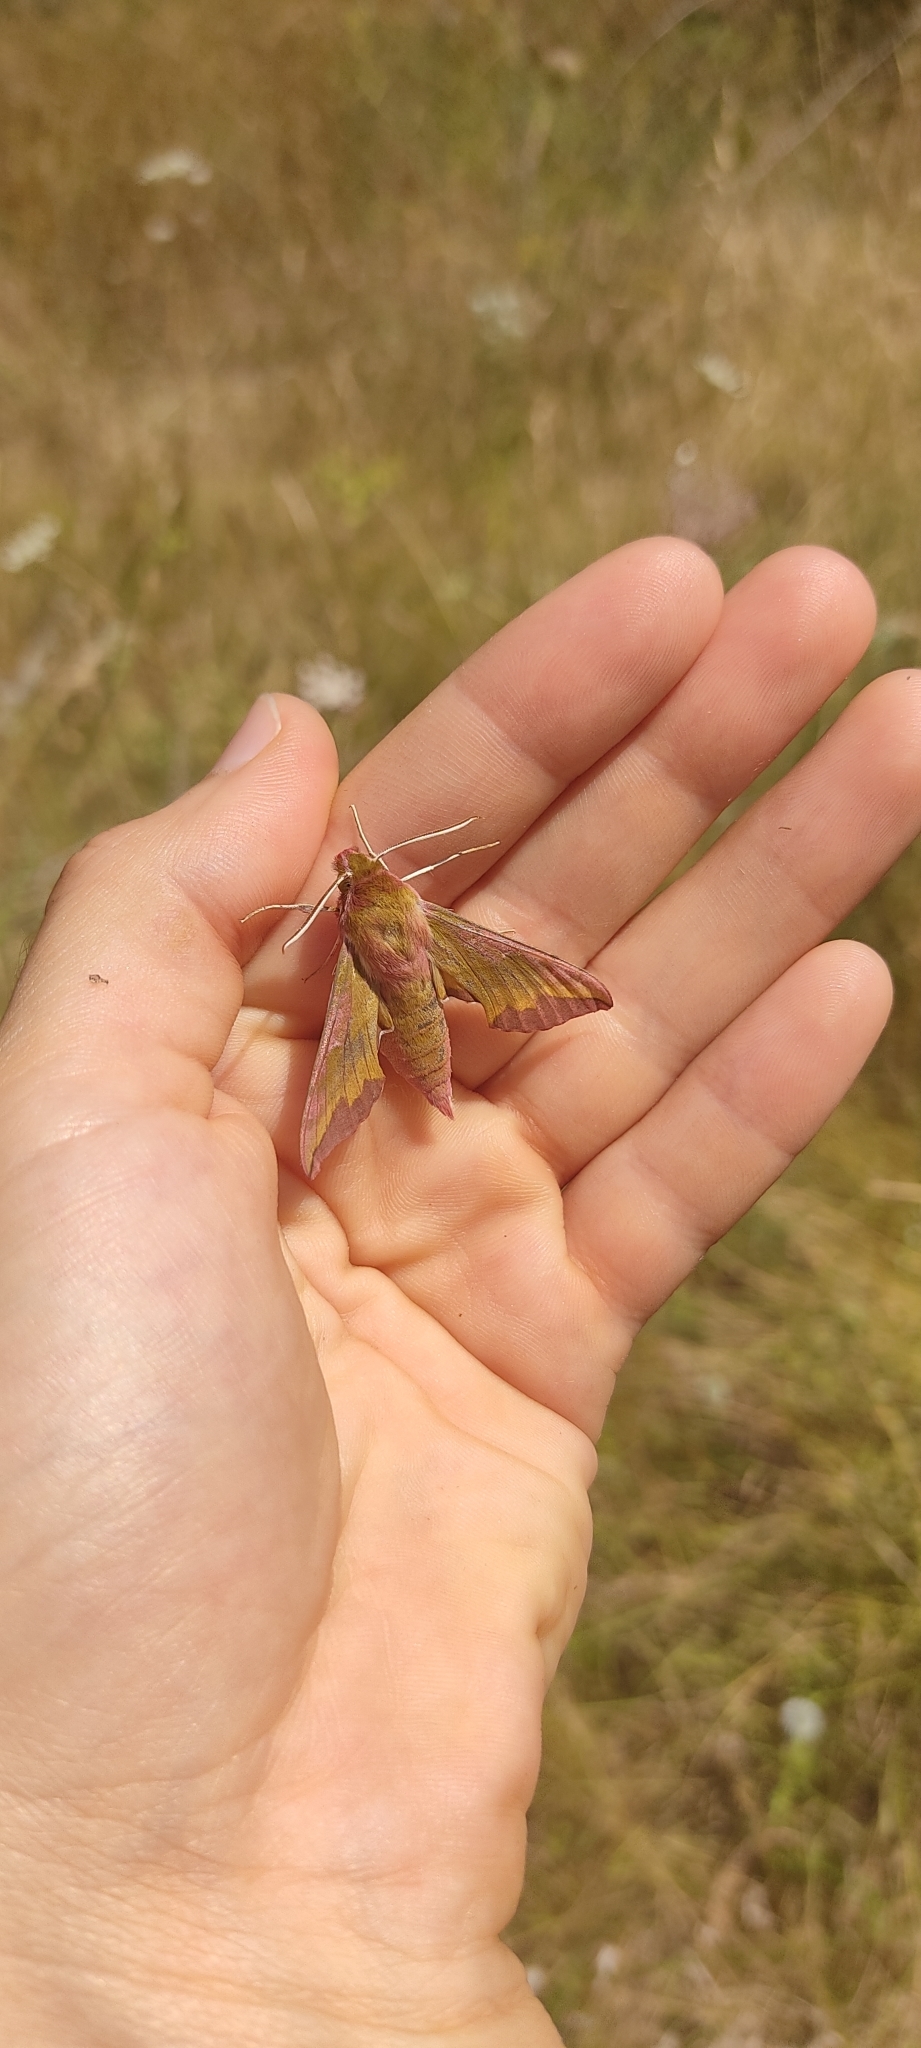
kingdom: Animalia
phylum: Arthropoda
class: Insecta
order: Lepidoptera
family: Sphingidae
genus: Deilephila
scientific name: Deilephila porcellus
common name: Small elephant hawk-moth
